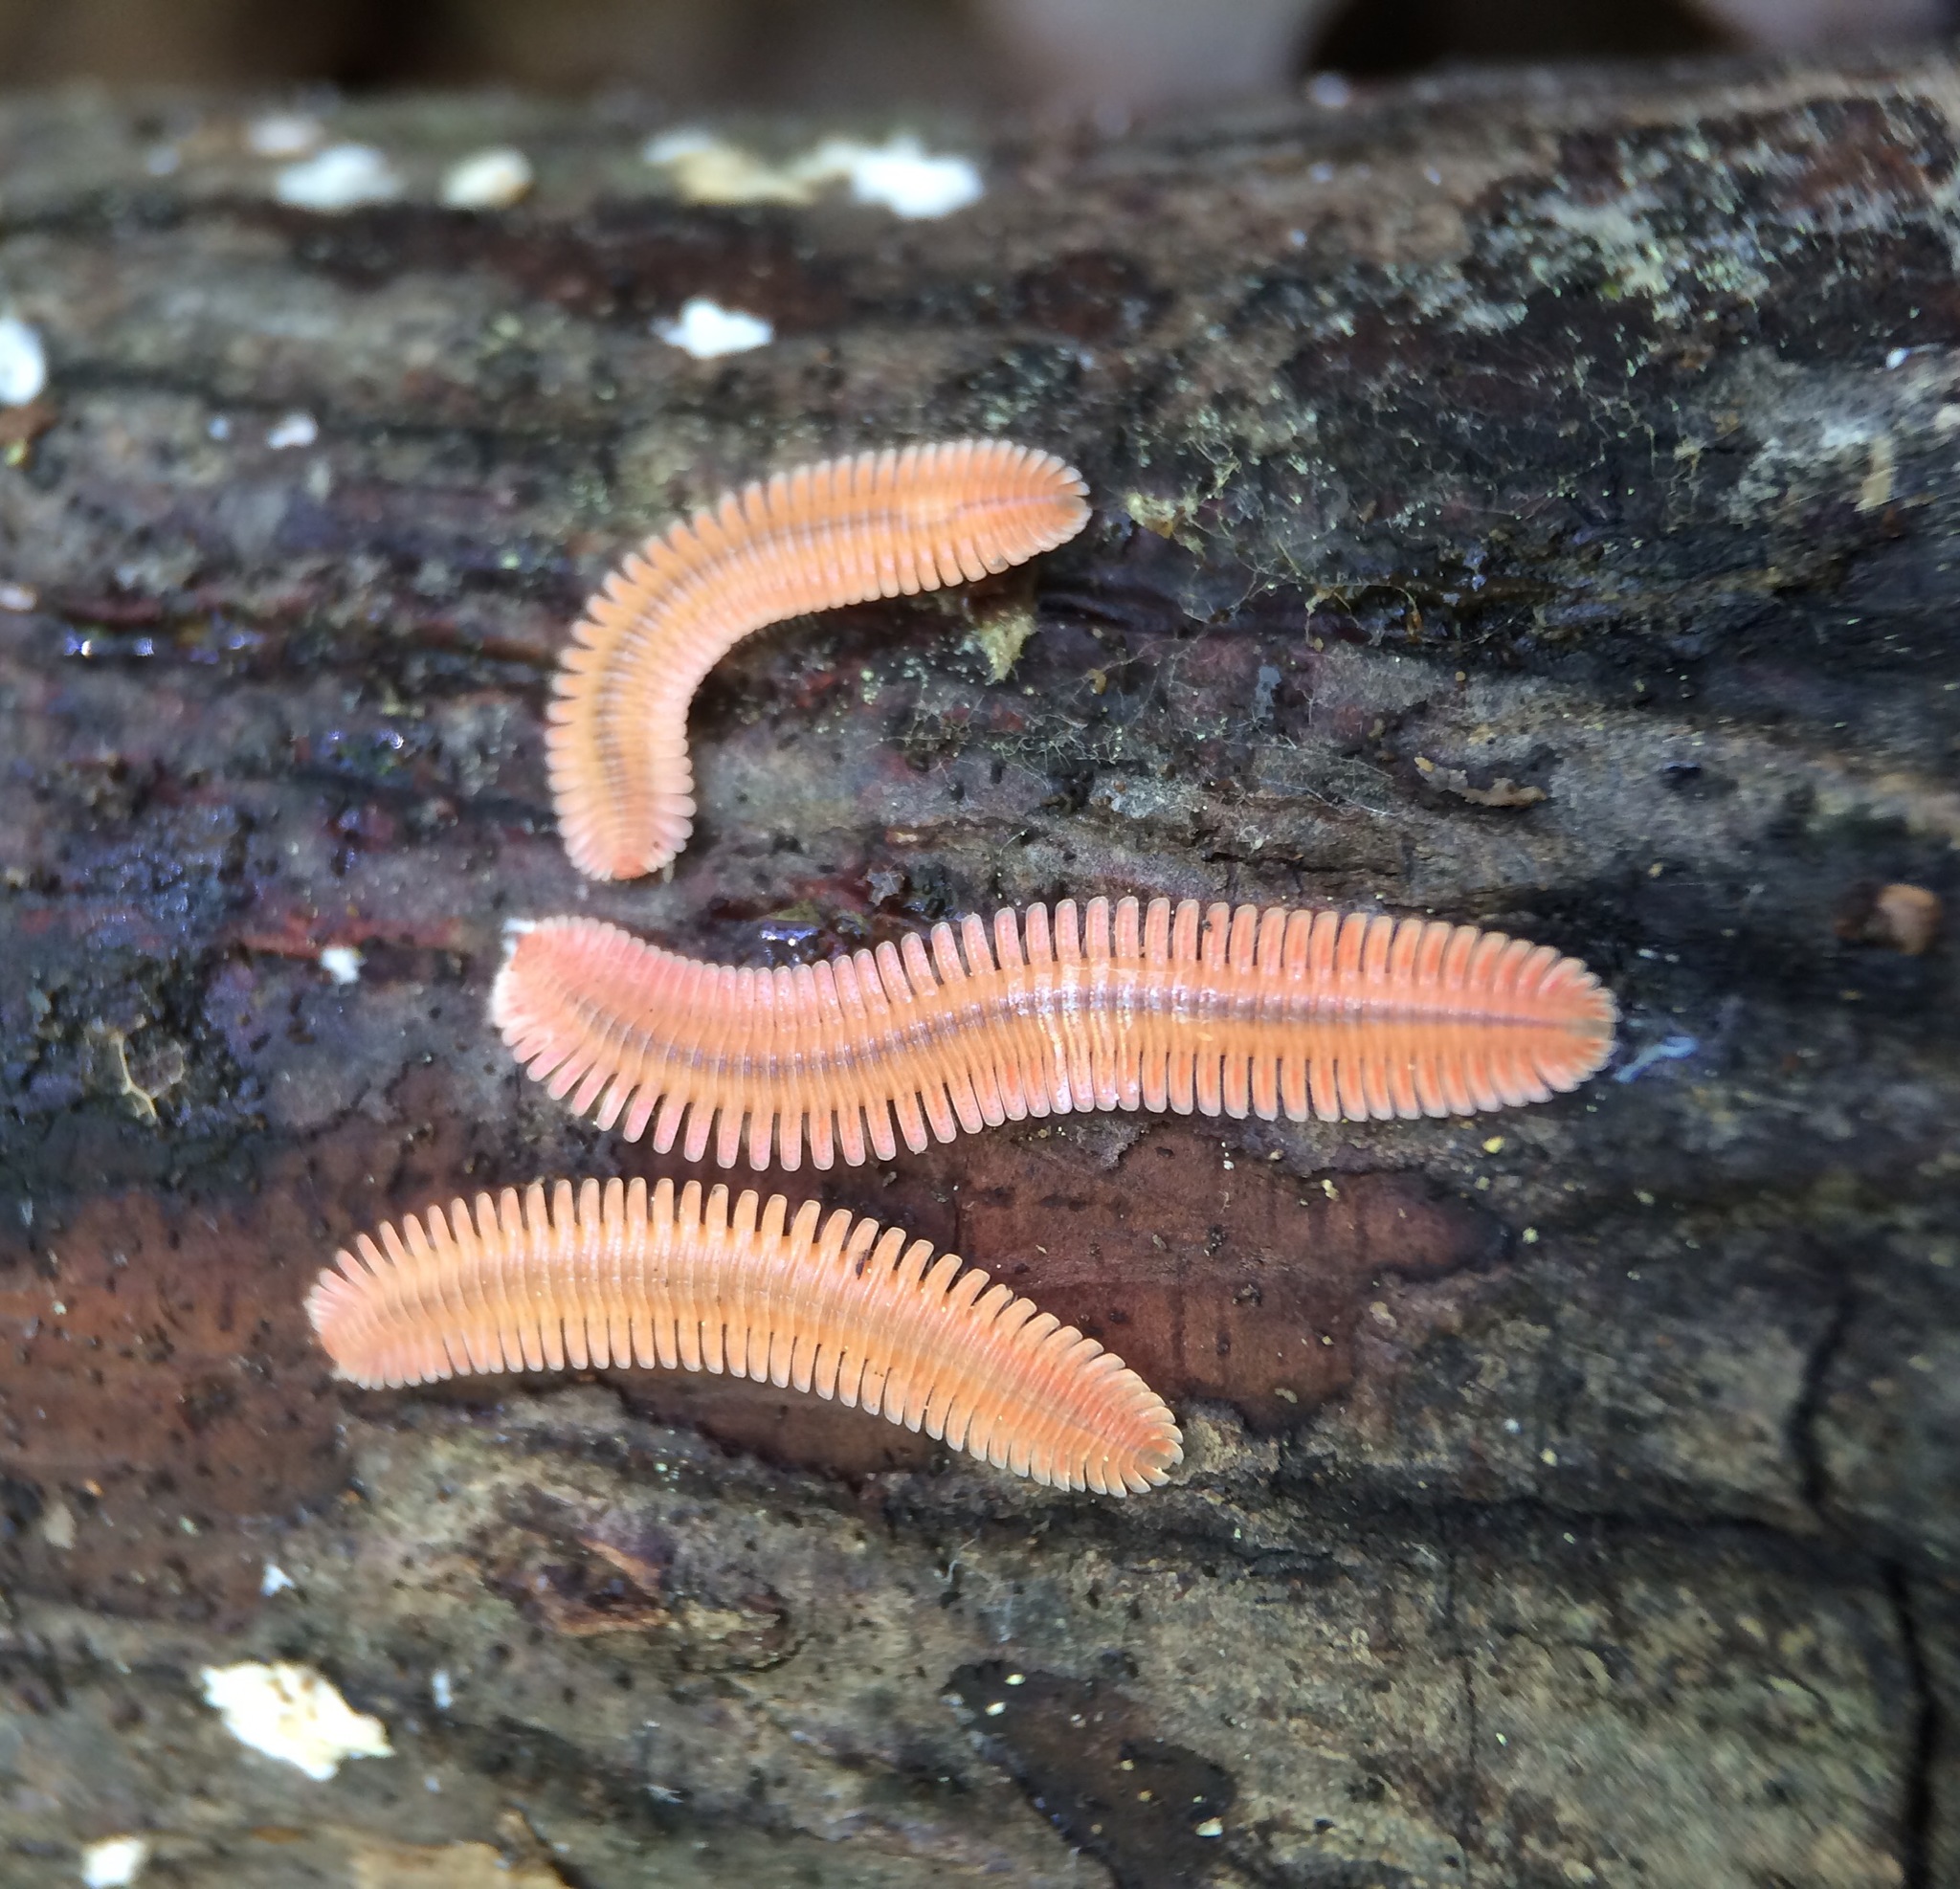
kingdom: Animalia
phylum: Arthropoda
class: Diplopoda
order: Platydesmida
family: Andrognathidae
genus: Brachycybe
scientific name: Brachycybe lecontii
